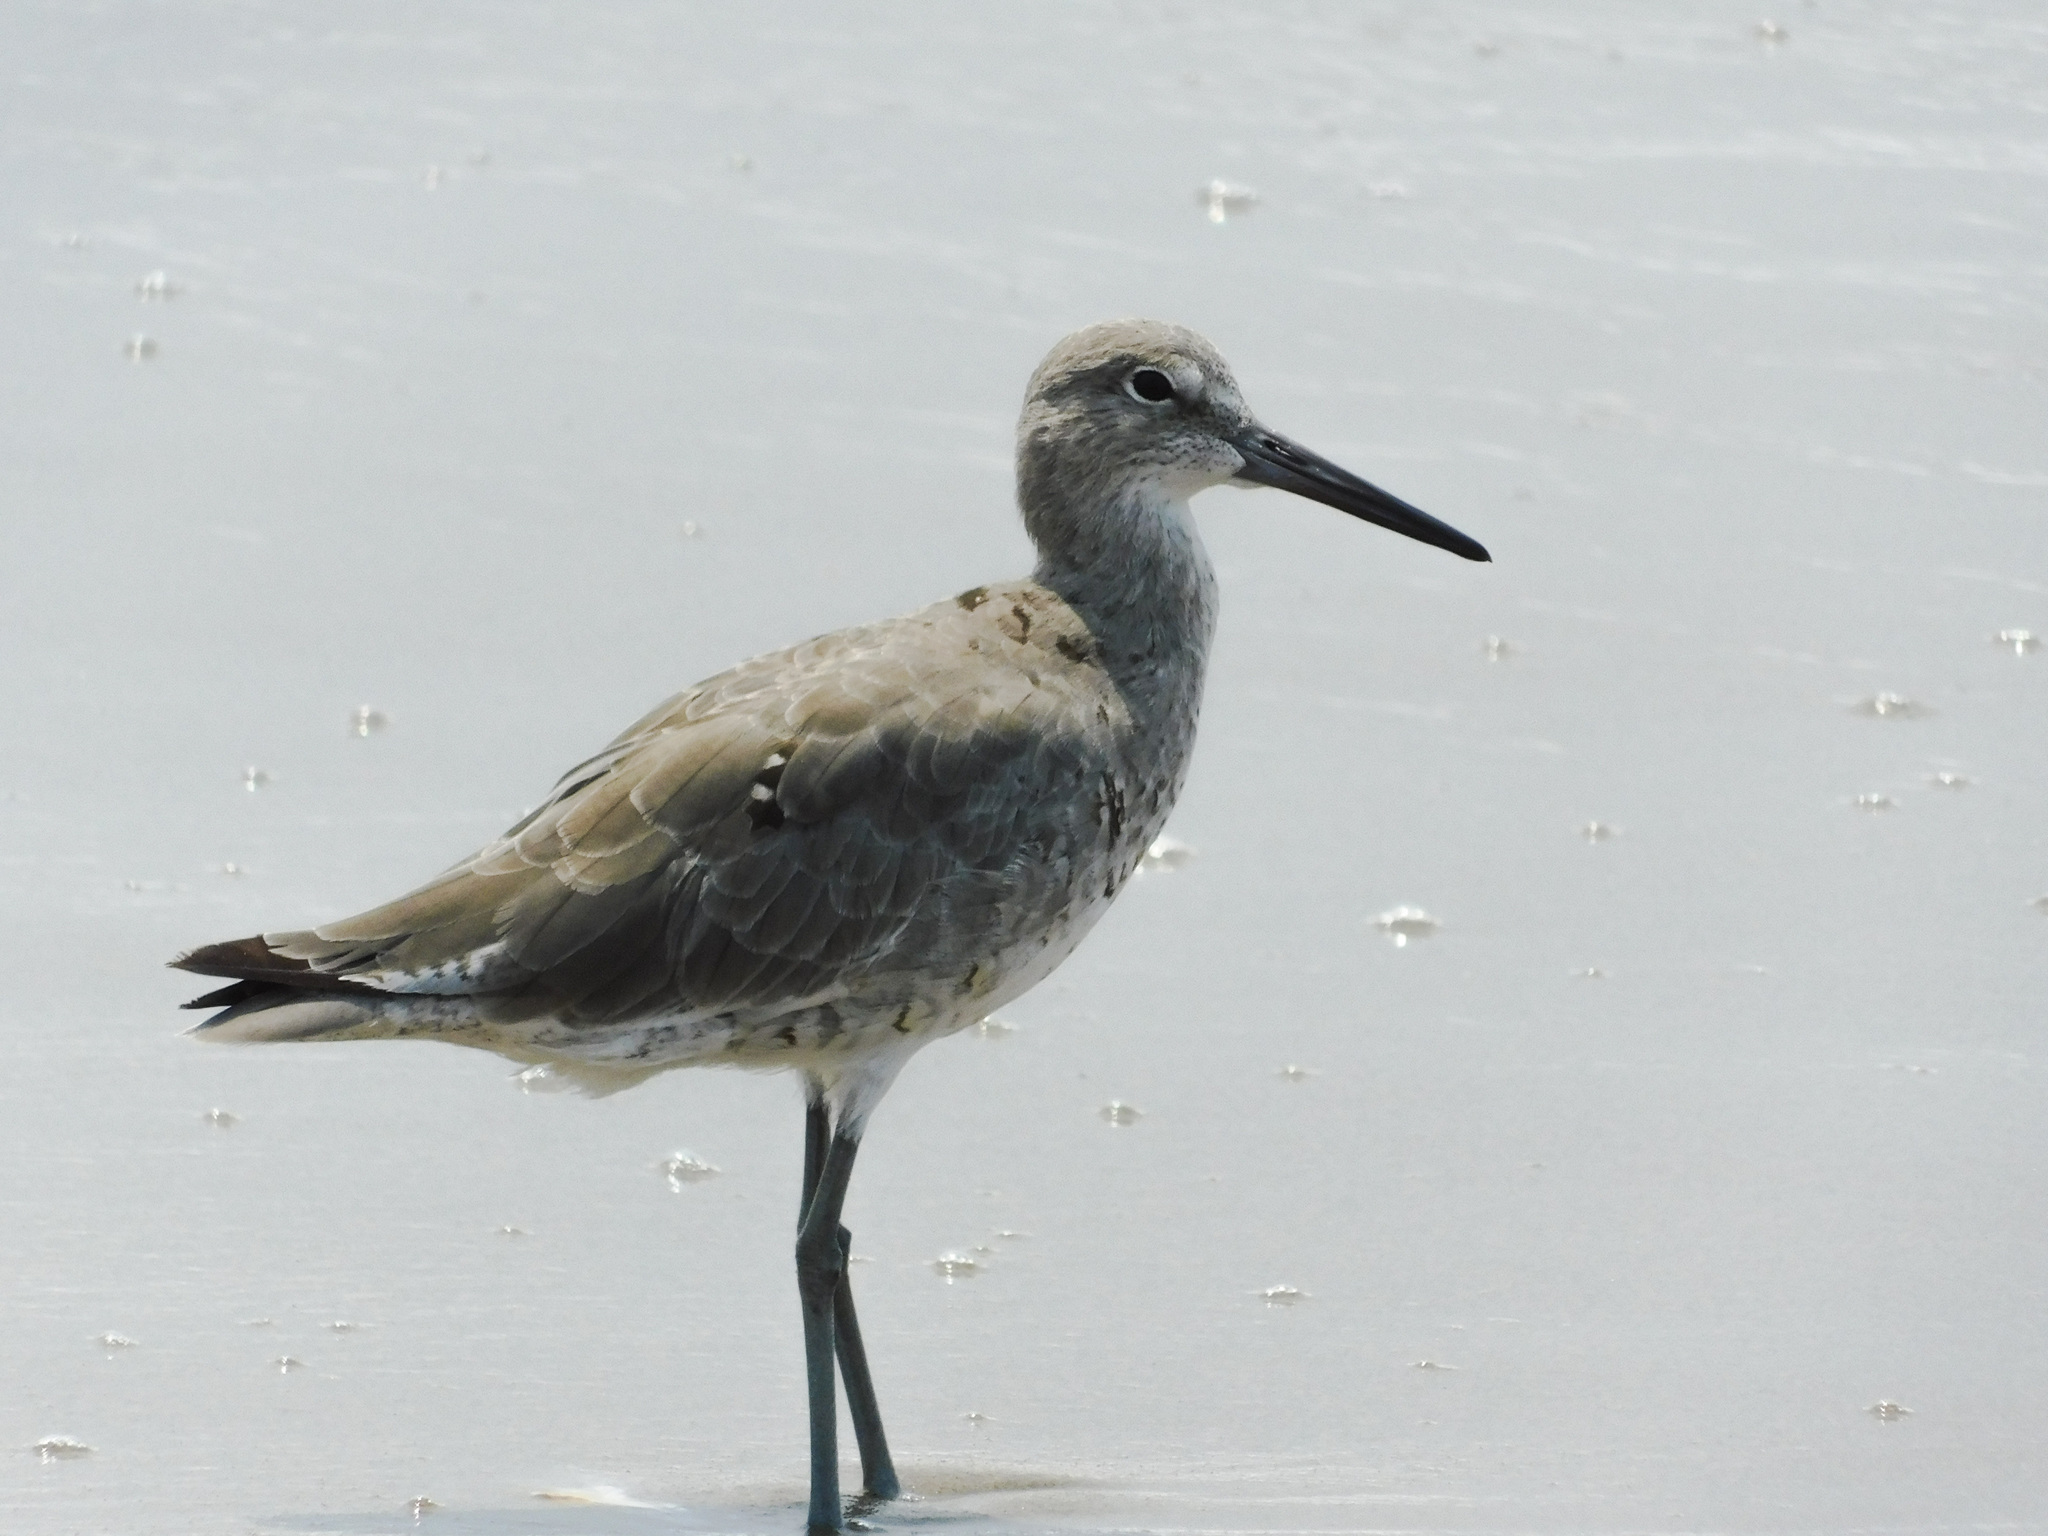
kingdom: Animalia
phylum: Chordata
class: Aves
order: Charadriiformes
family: Scolopacidae
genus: Tringa
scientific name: Tringa semipalmata
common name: Willet
